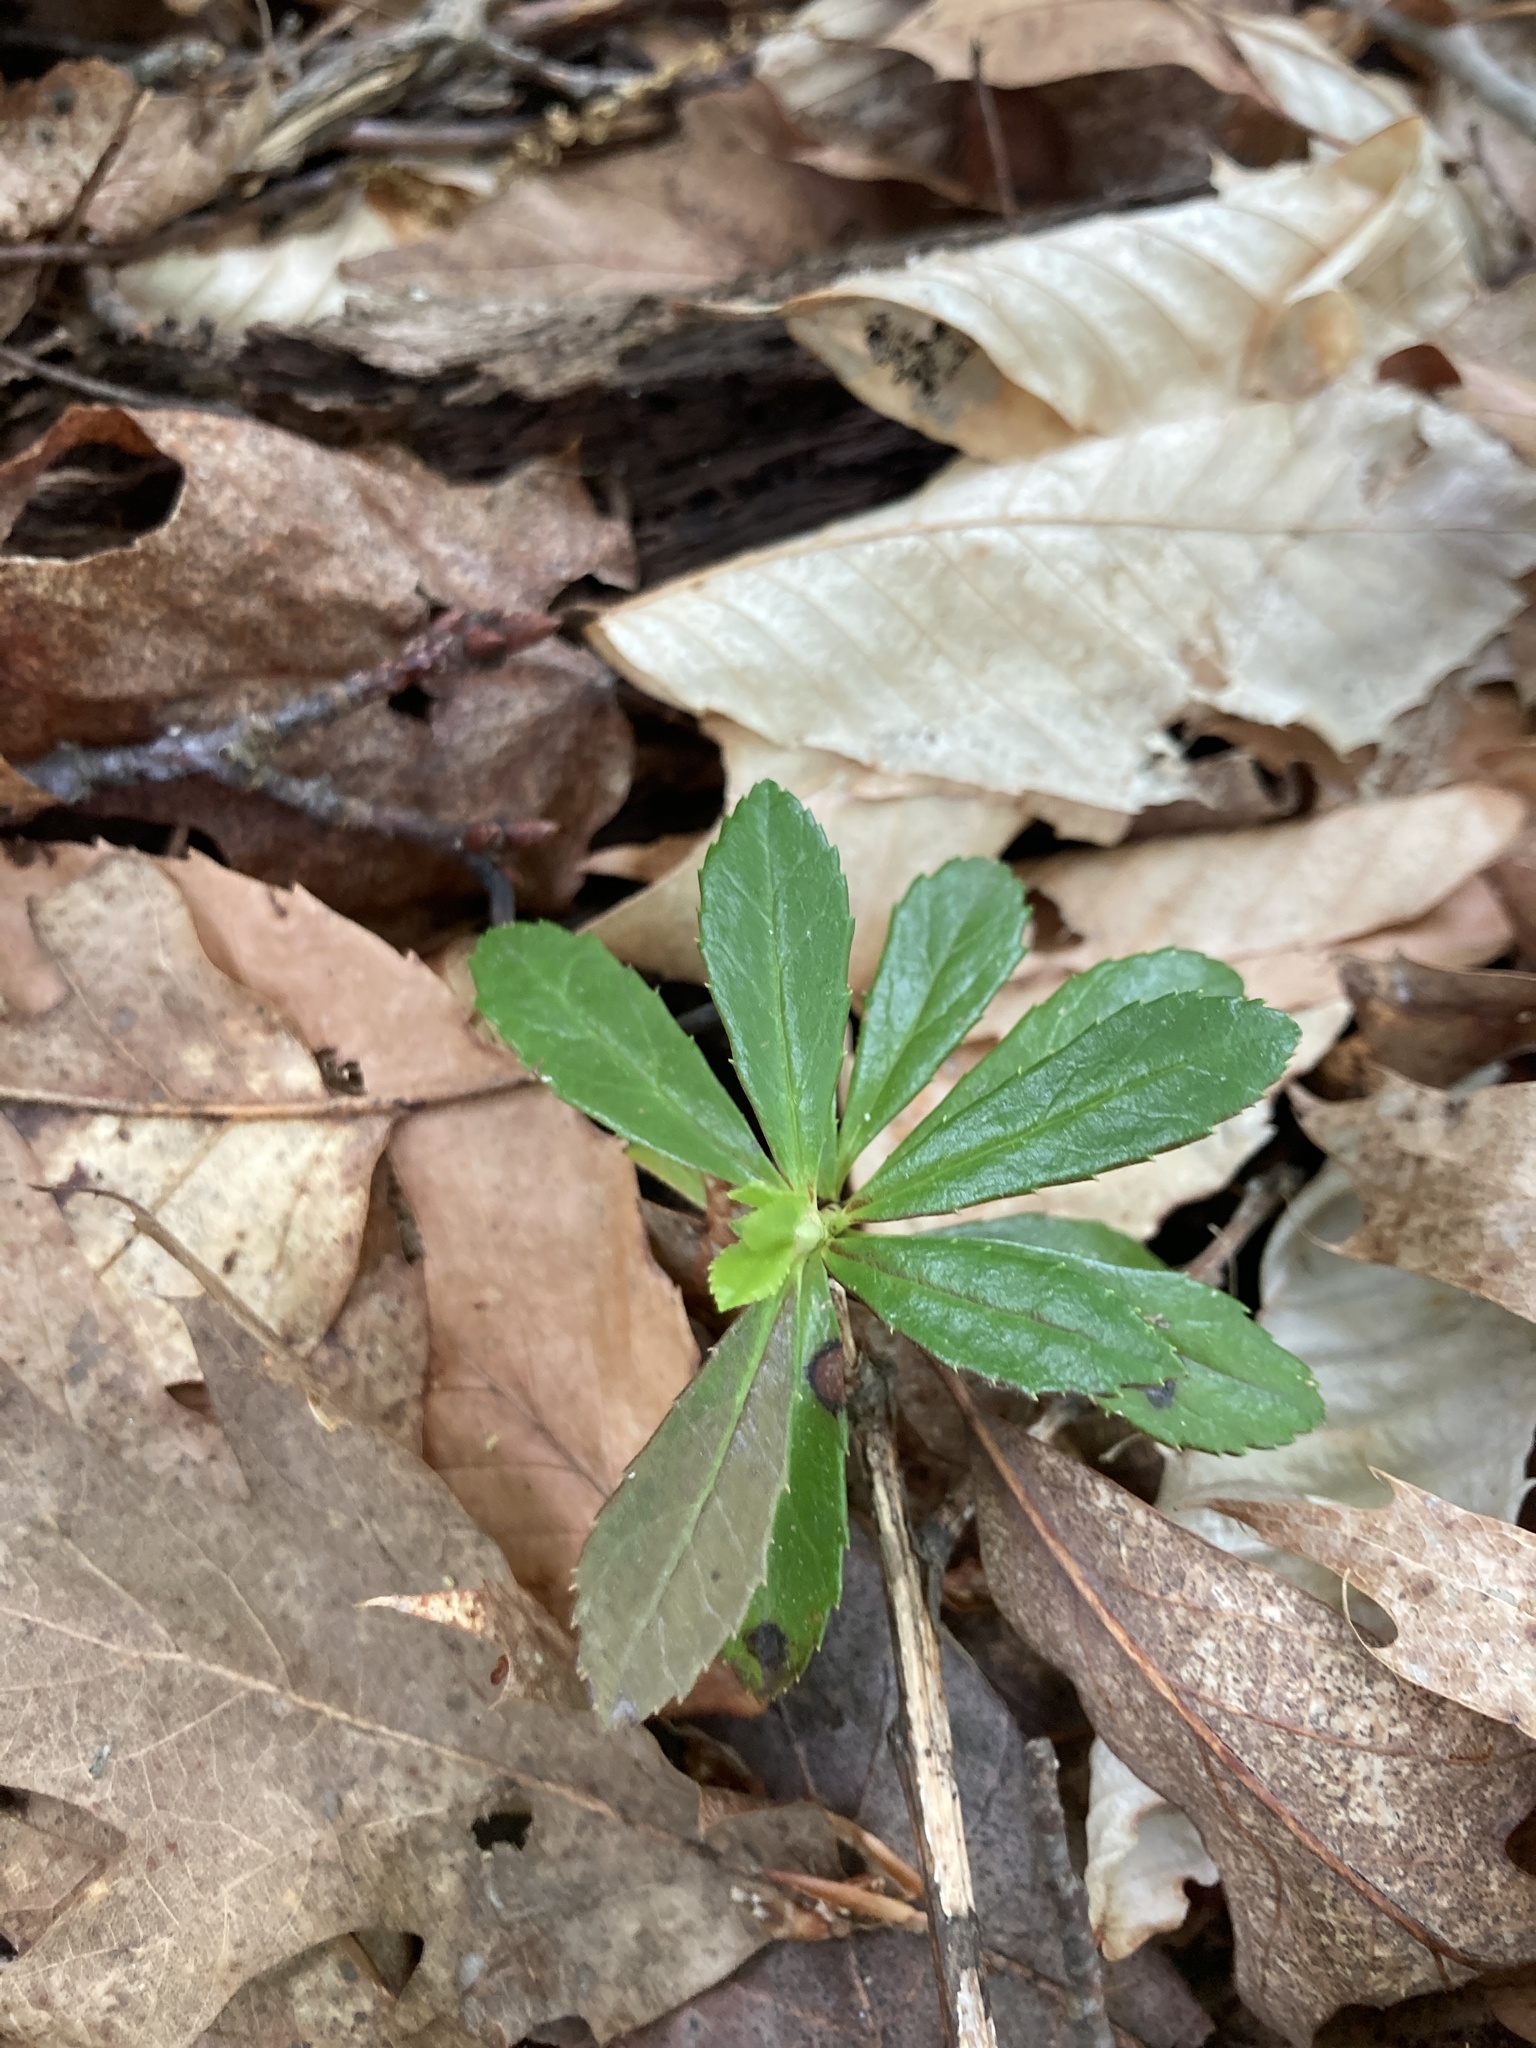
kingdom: Plantae
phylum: Tracheophyta
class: Magnoliopsida
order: Ericales
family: Ericaceae
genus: Chimaphila
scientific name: Chimaphila umbellata
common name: Pipsissewa
